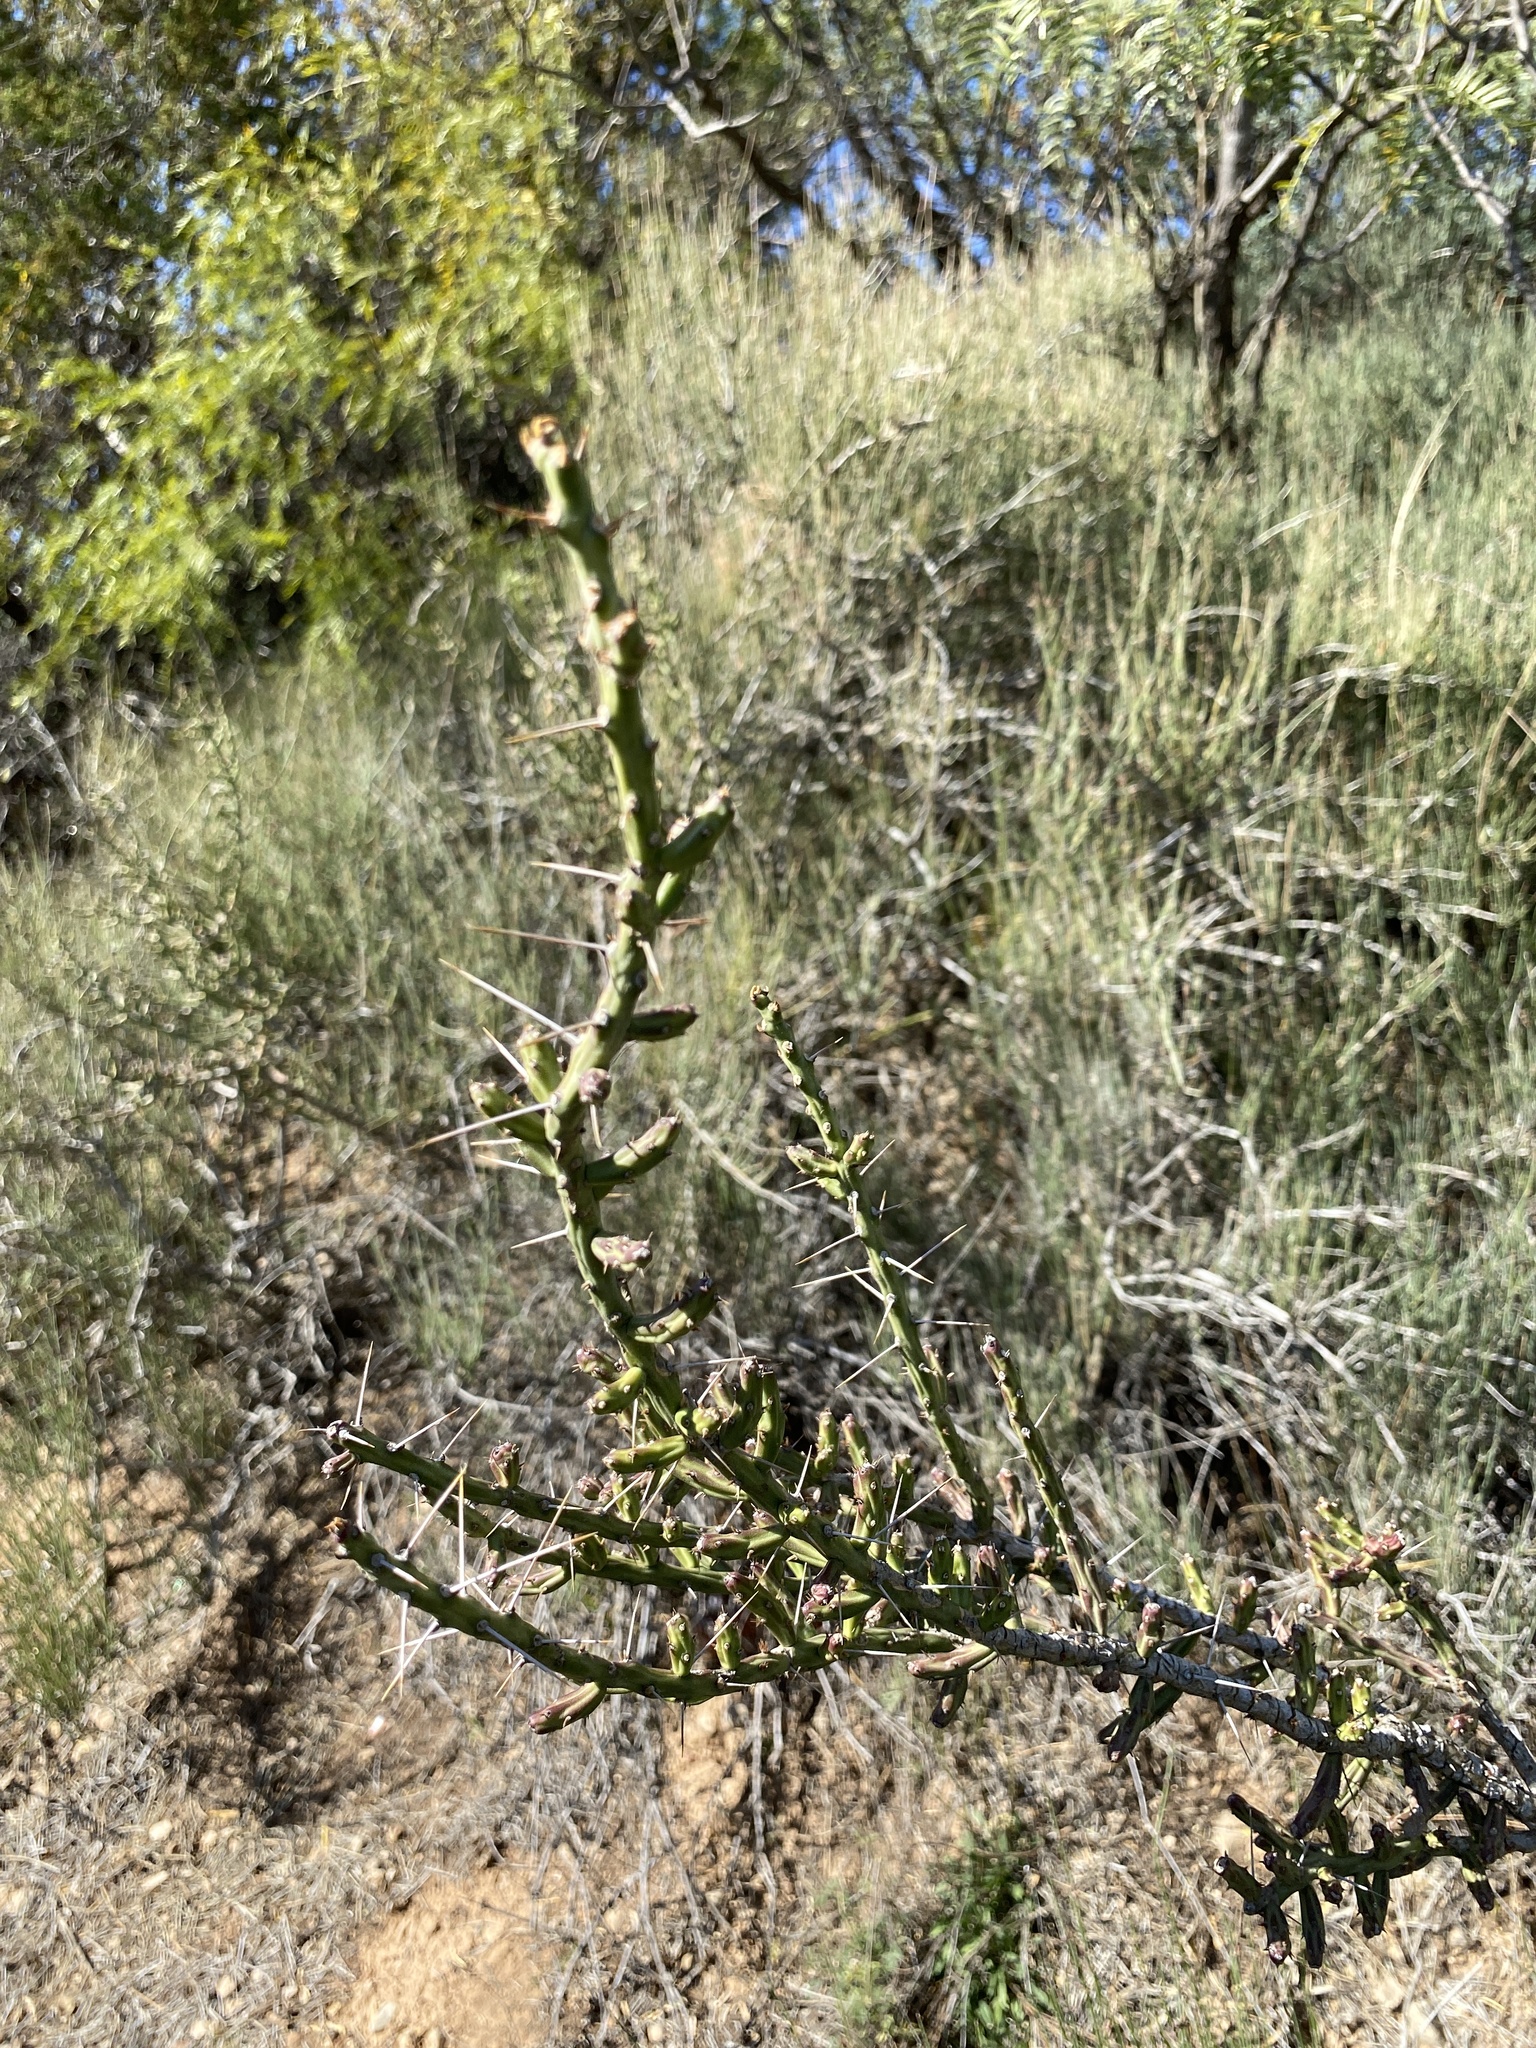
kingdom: Plantae
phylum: Tracheophyta
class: Magnoliopsida
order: Caryophyllales
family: Cactaceae
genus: Cylindropuntia
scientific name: Cylindropuntia leptocaulis
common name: Christmas cactus
